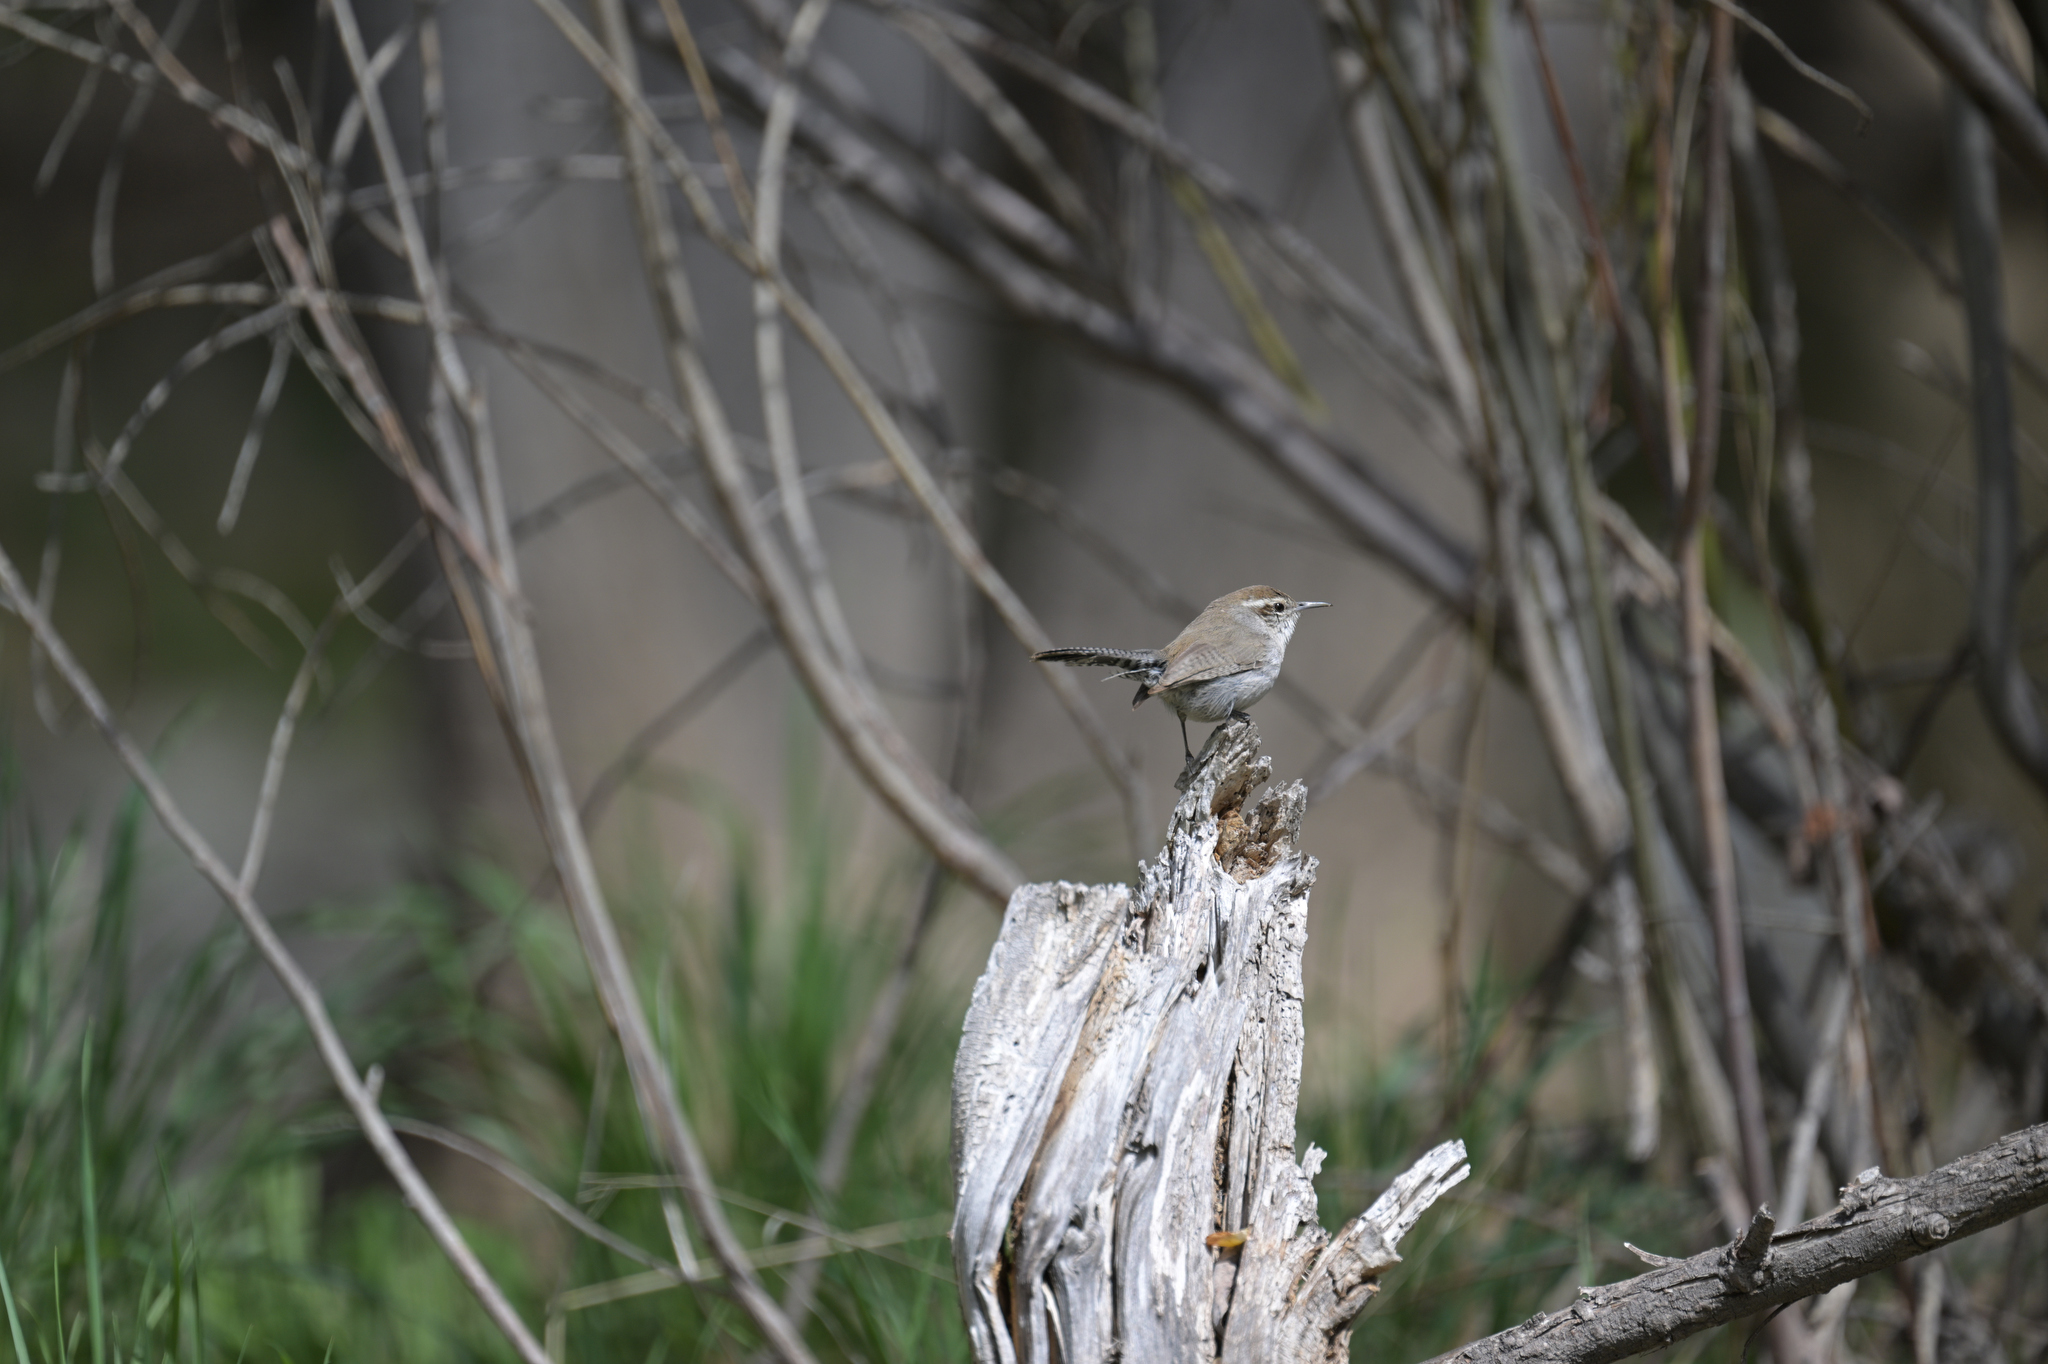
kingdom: Animalia
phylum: Chordata
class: Aves
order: Passeriformes
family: Troglodytidae
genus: Thryomanes
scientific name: Thryomanes bewickii
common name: Bewick's wren
